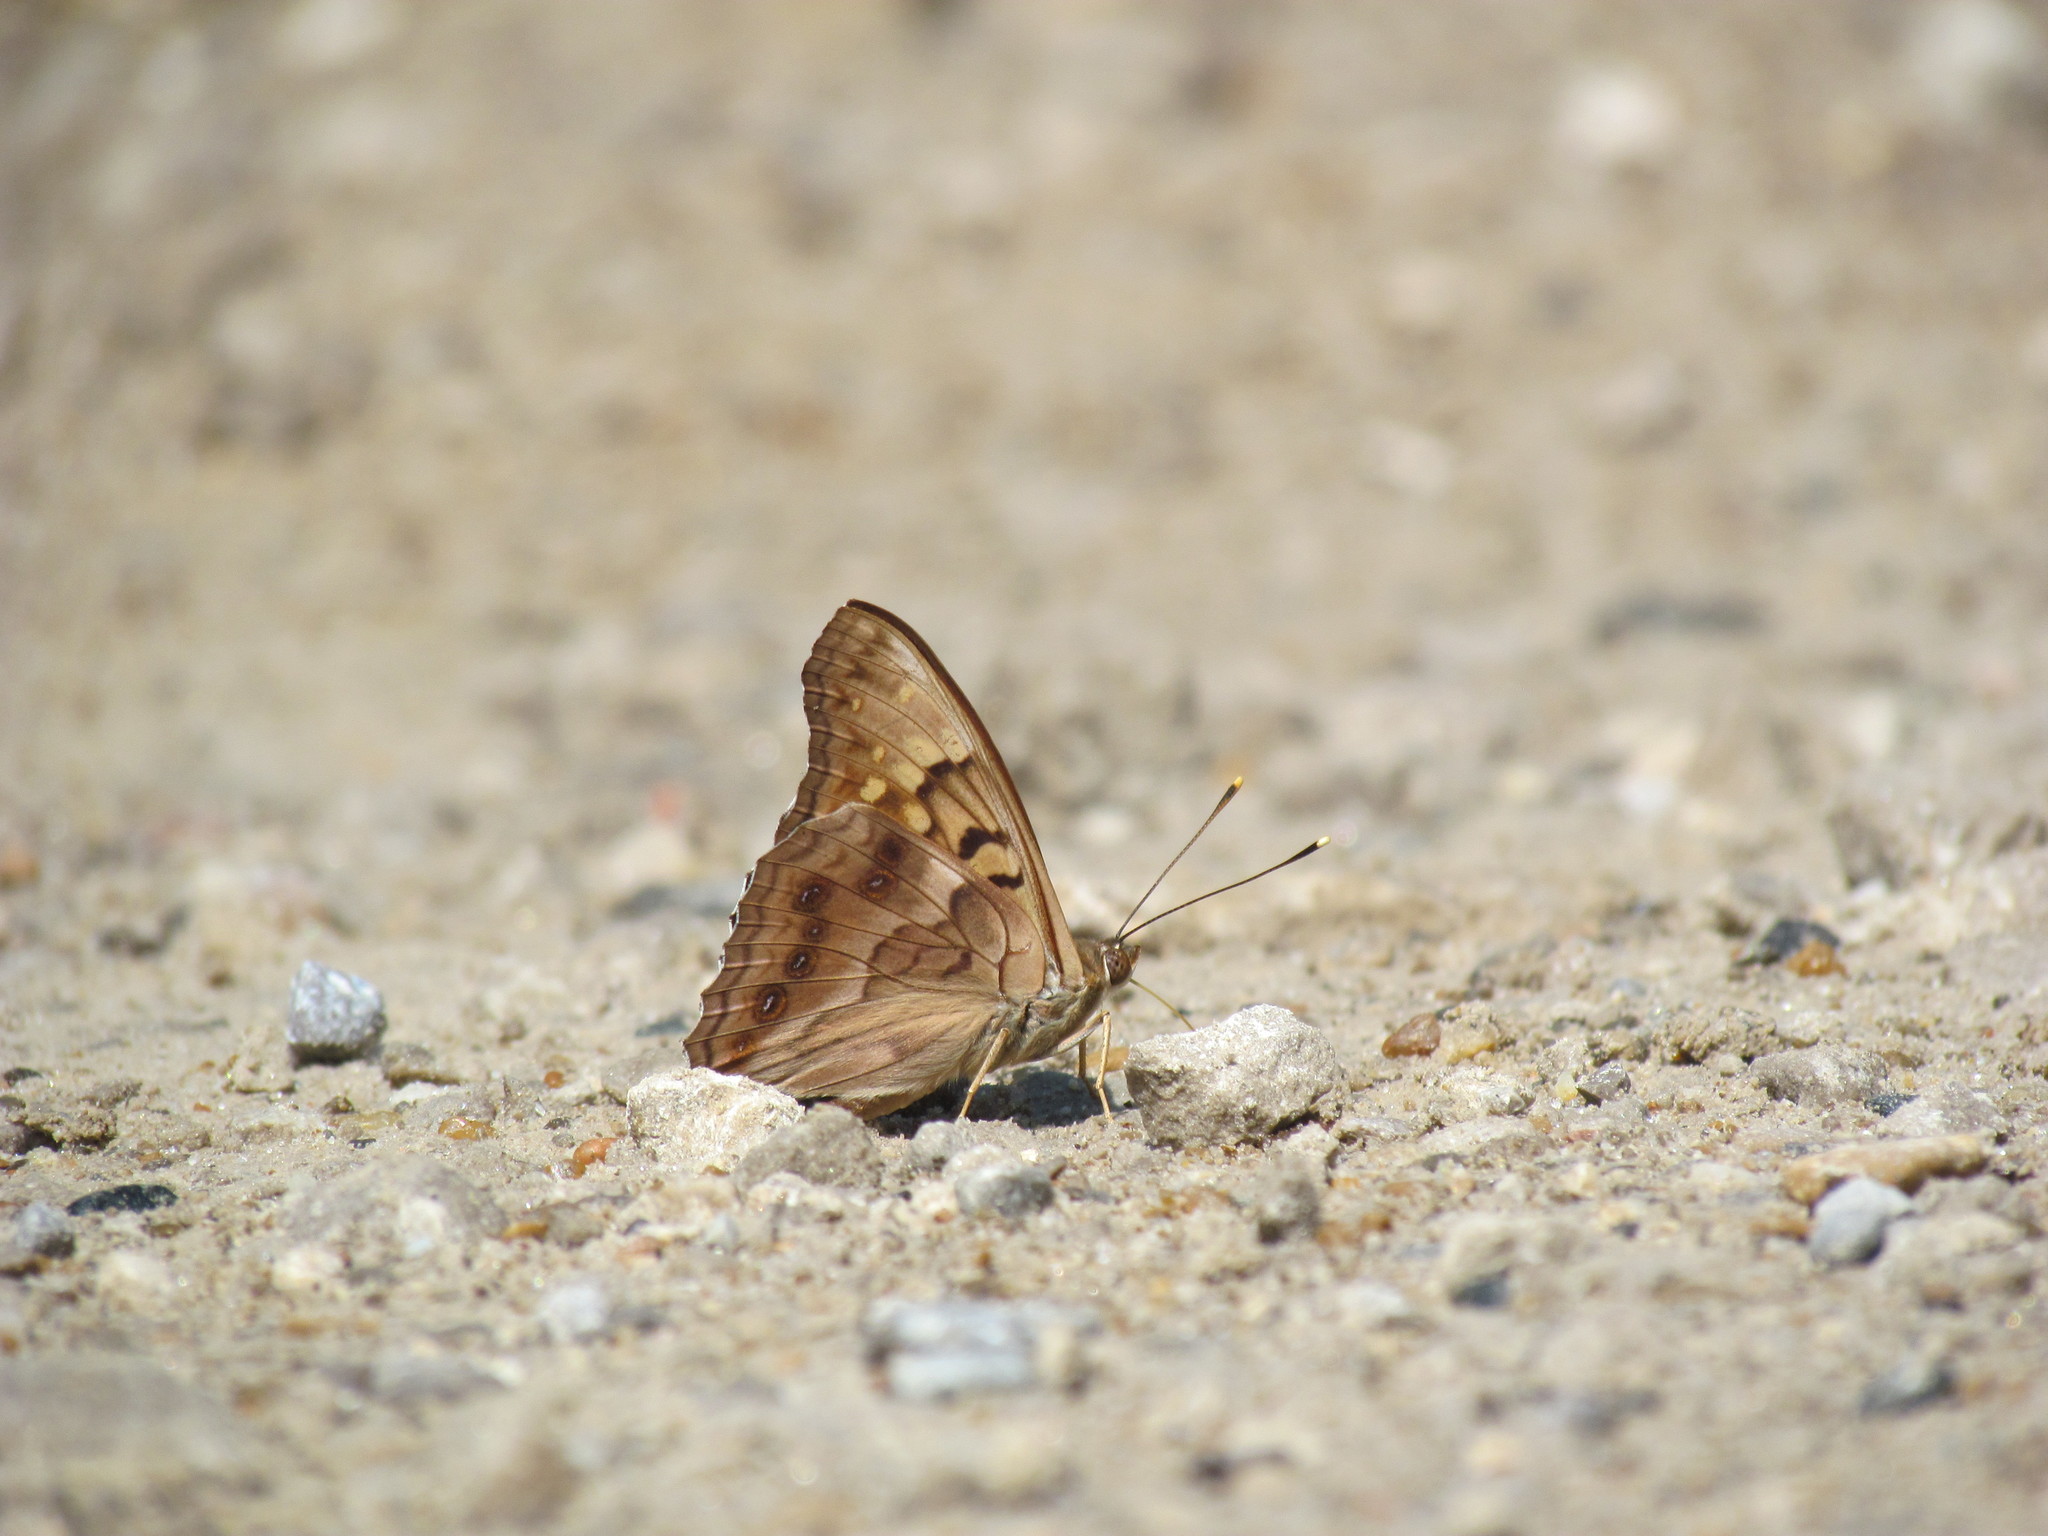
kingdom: Animalia
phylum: Arthropoda
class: Insecta
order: Lepidoptera
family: Nymphalidae
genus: Asterocampa
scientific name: Asterocampa clyton
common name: Tawny emperor
